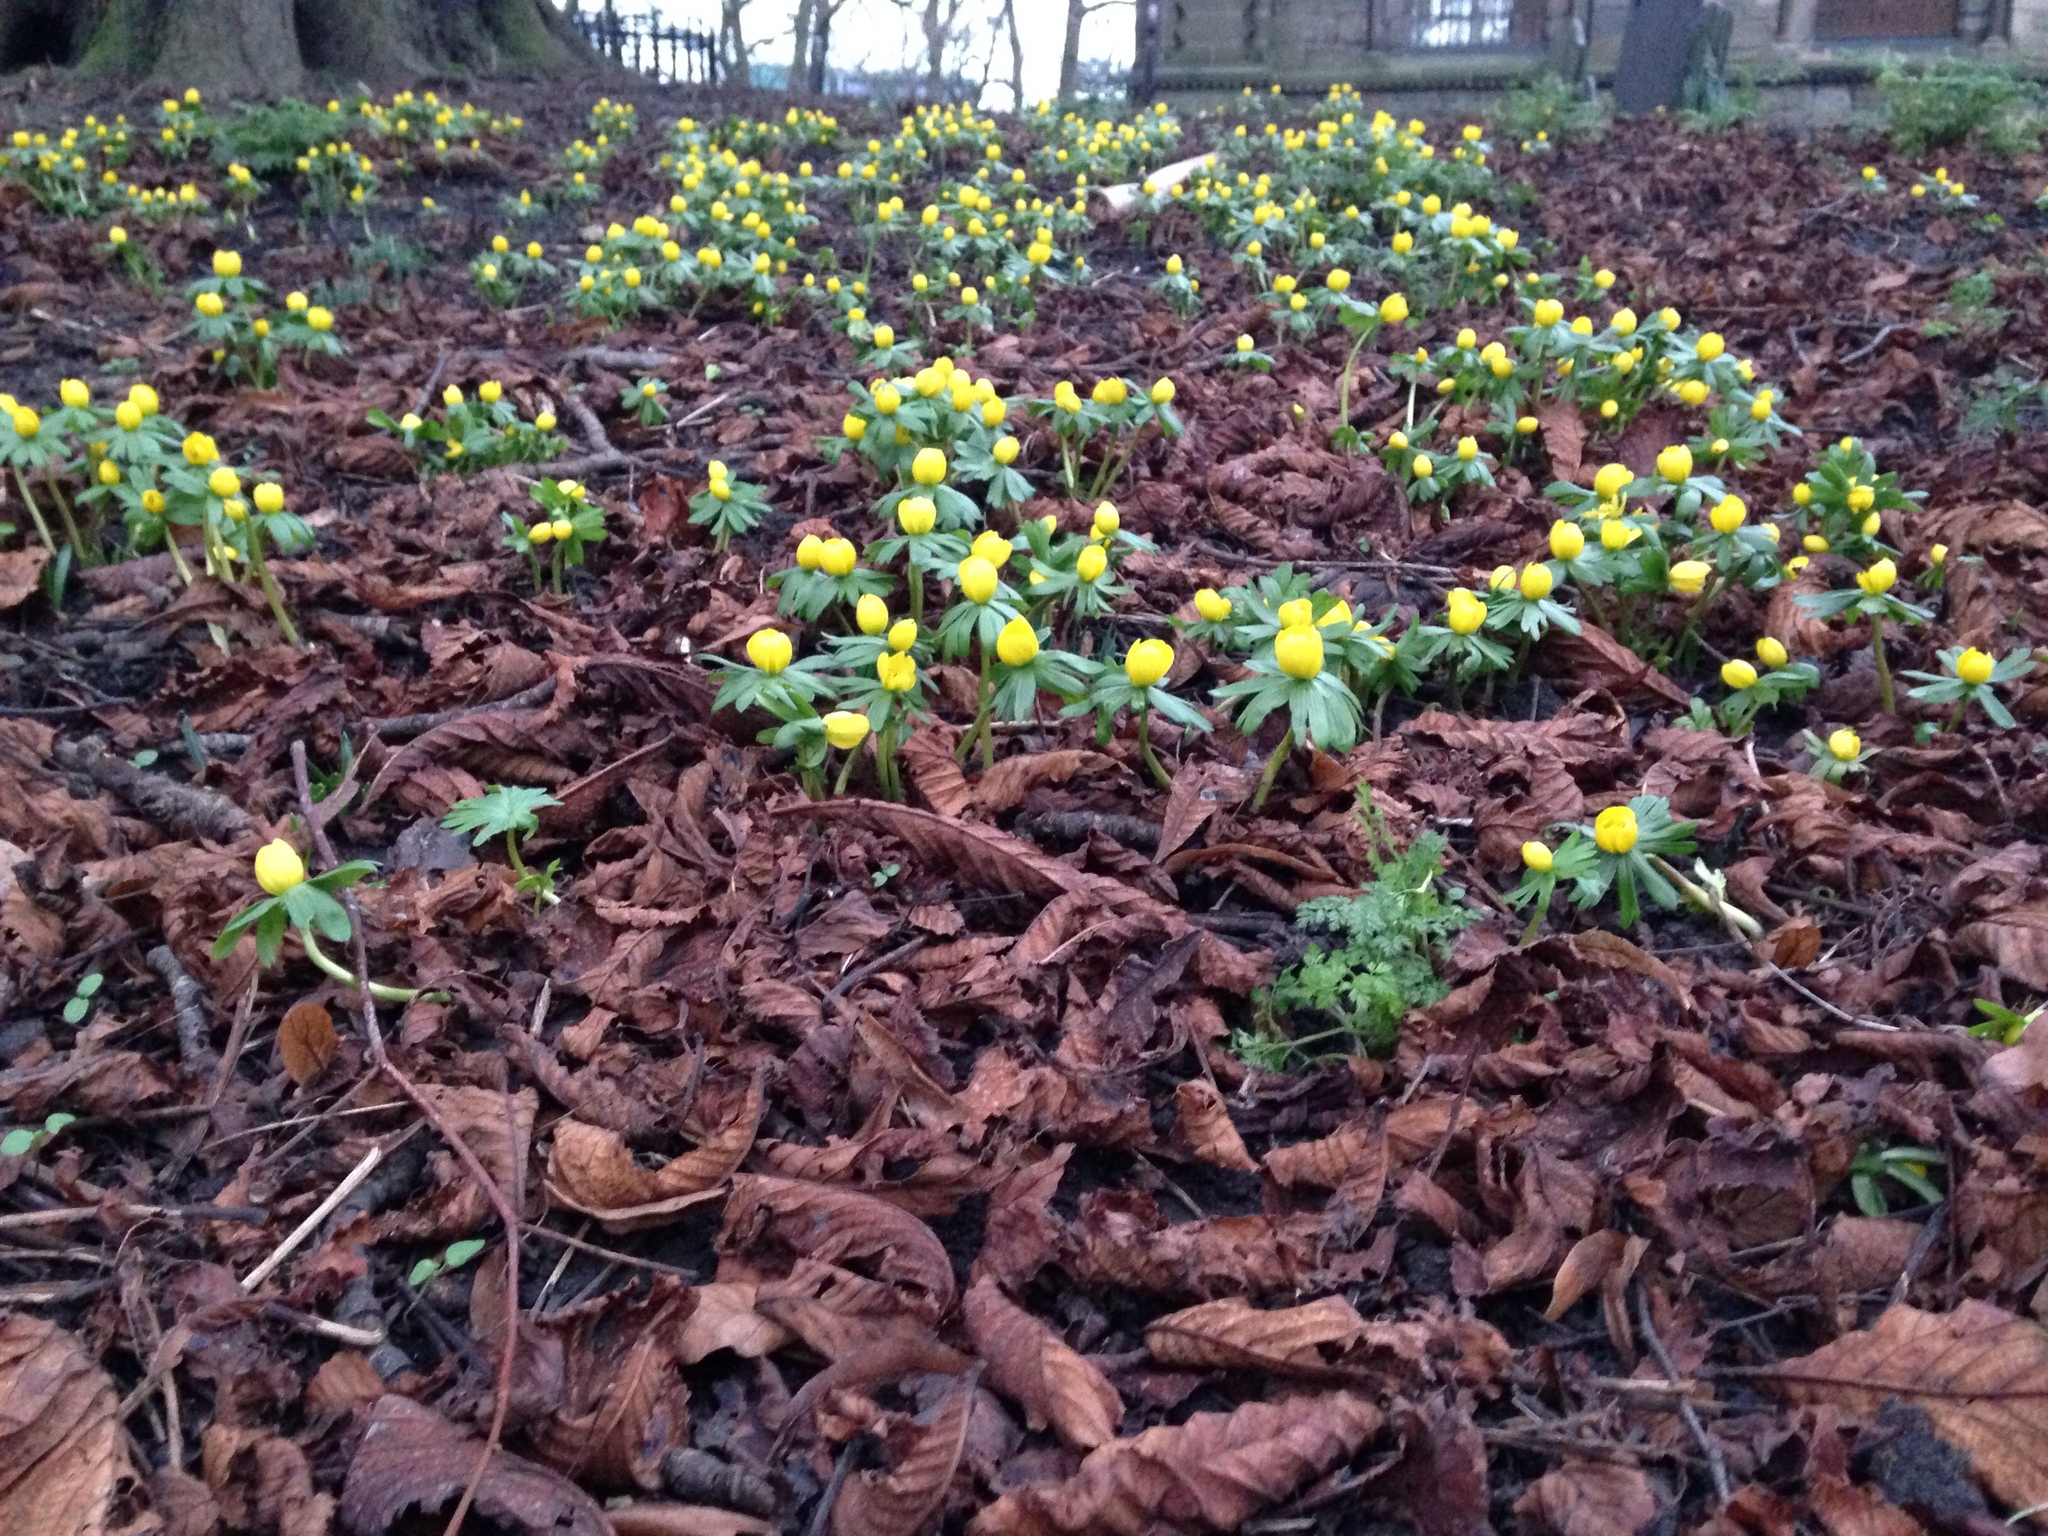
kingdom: Plantae
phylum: Tracheophyta
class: Magnoliopsida
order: Ranunculales
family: Ranunculaceae
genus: Eranthis
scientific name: Eranthis hyemalis
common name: Winter aconite
